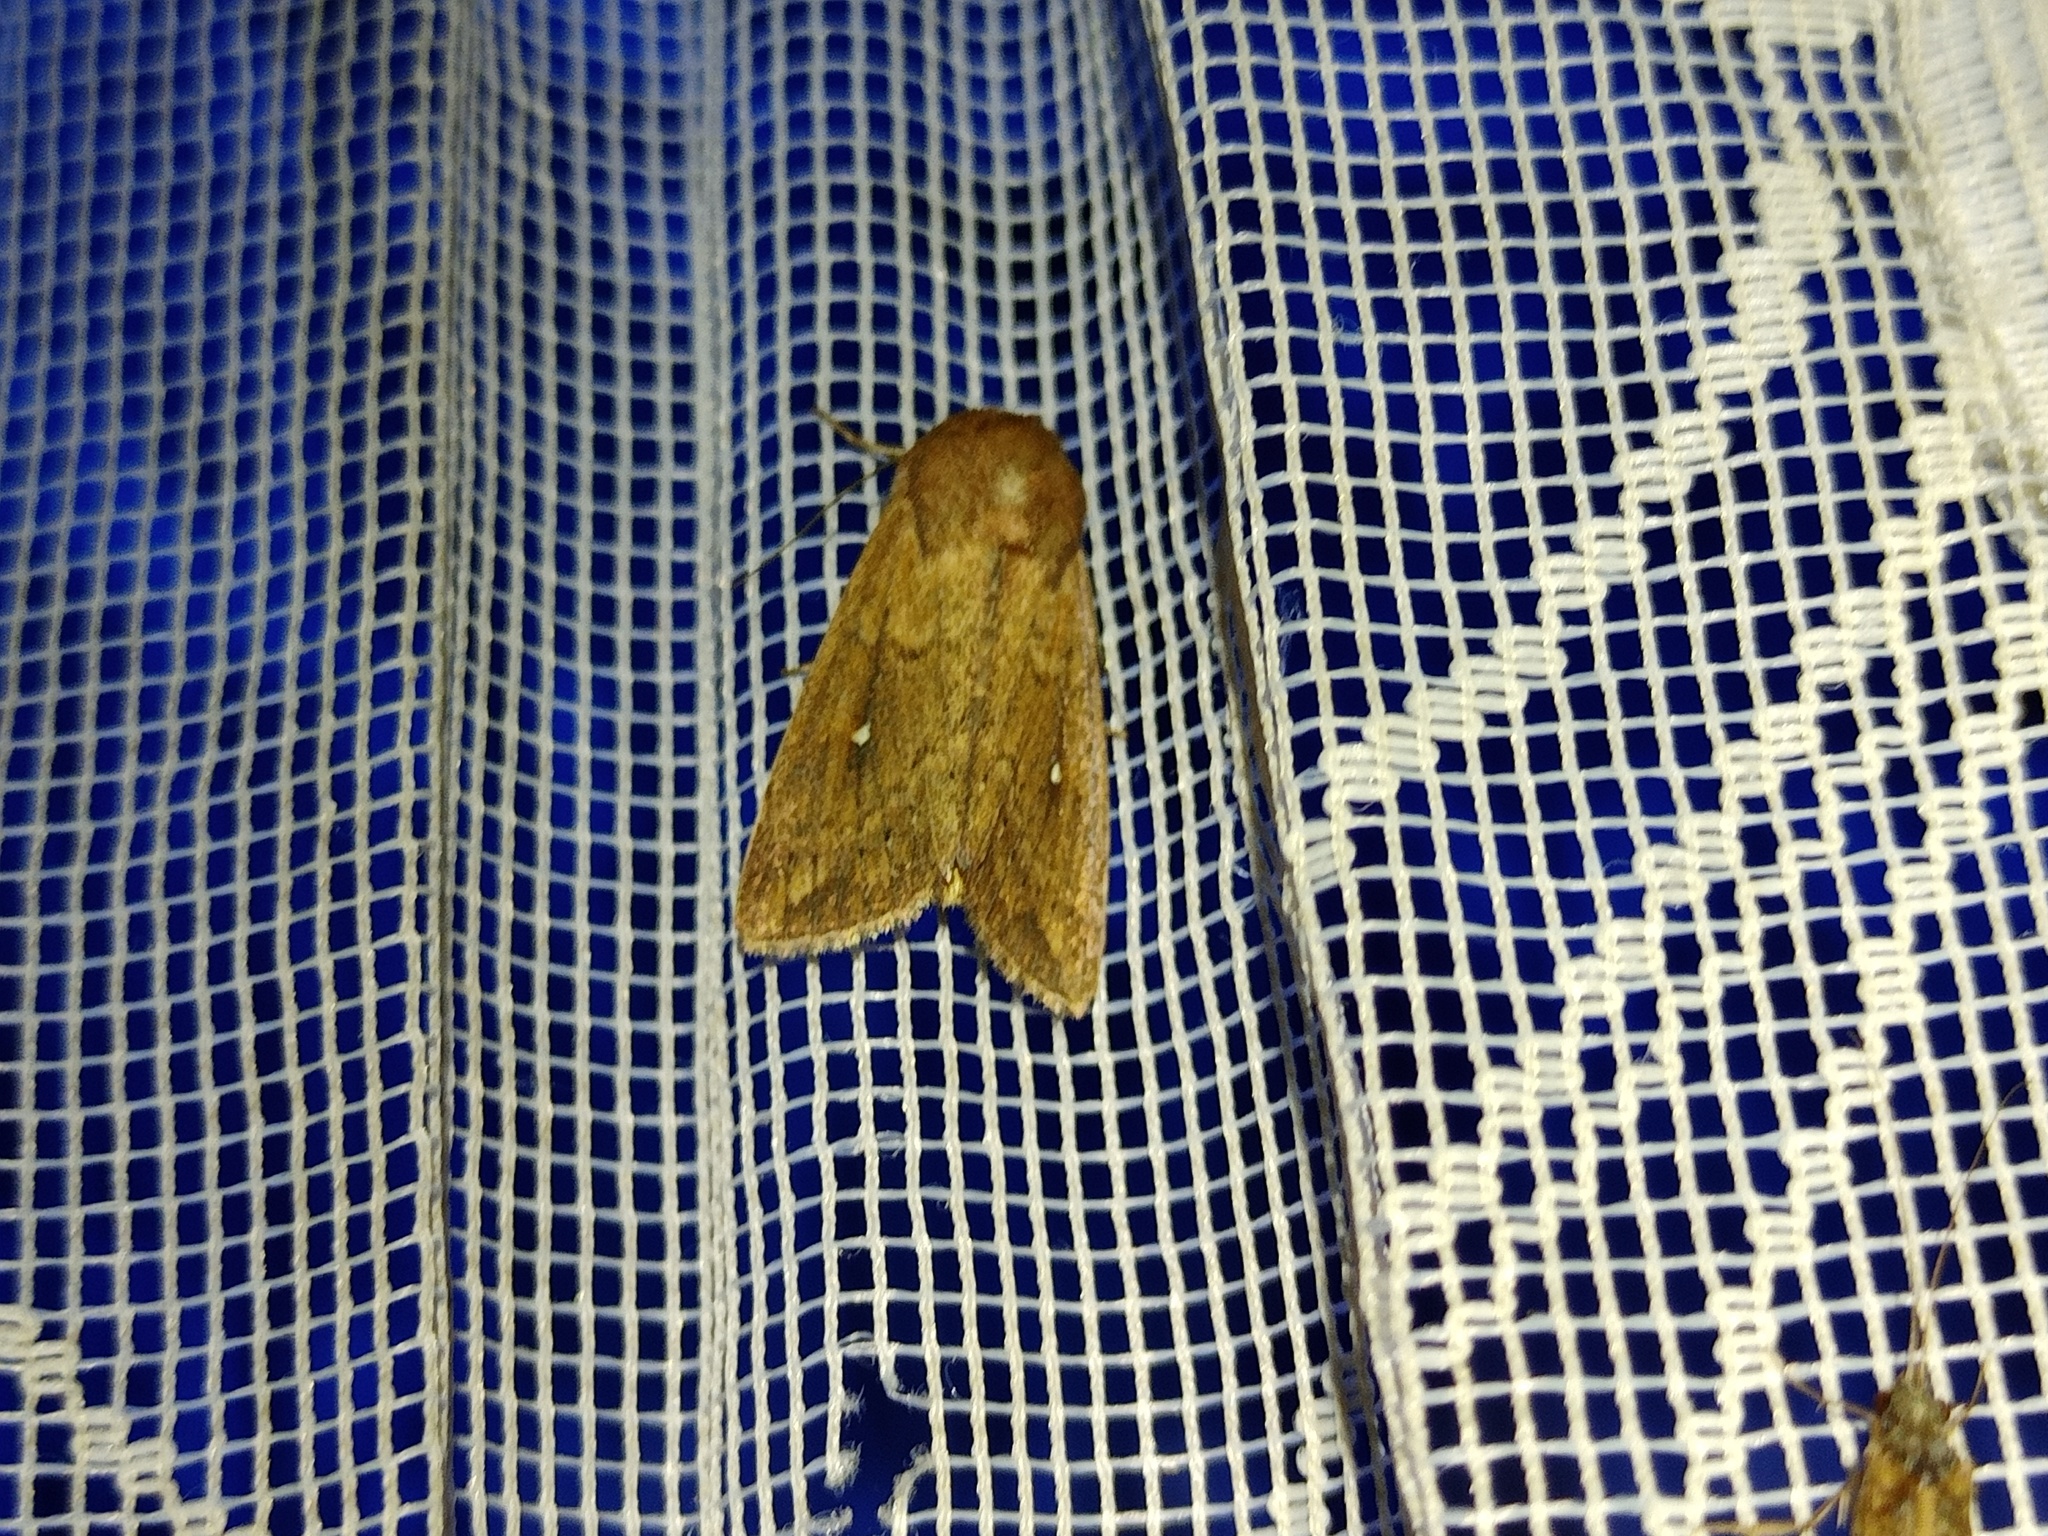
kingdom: Animalia
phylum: Arthropoda
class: Insecta
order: Lepidoptera
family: Noctuidae
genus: Mythimna
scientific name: Mythimna albipuncta
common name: White-point
